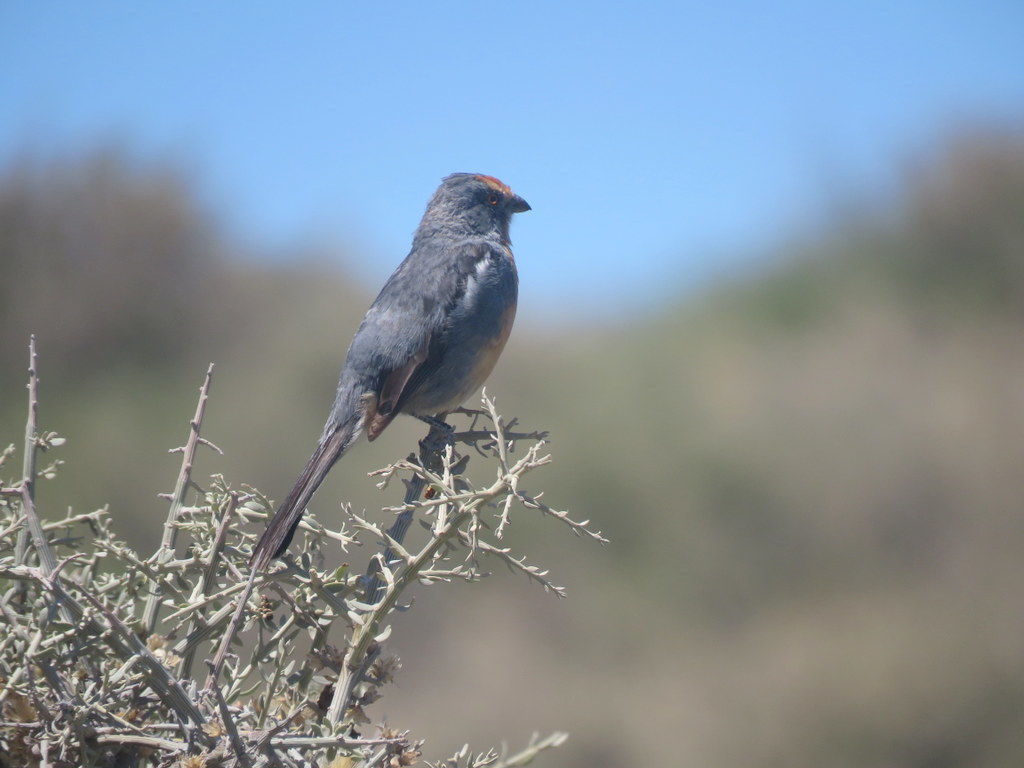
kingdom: Animalia
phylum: Chordata
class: Aves
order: Passeriformes
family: Cotingidae
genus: Phytotoma
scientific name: Phytotoma rutila
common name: White-tipped plantcutter
